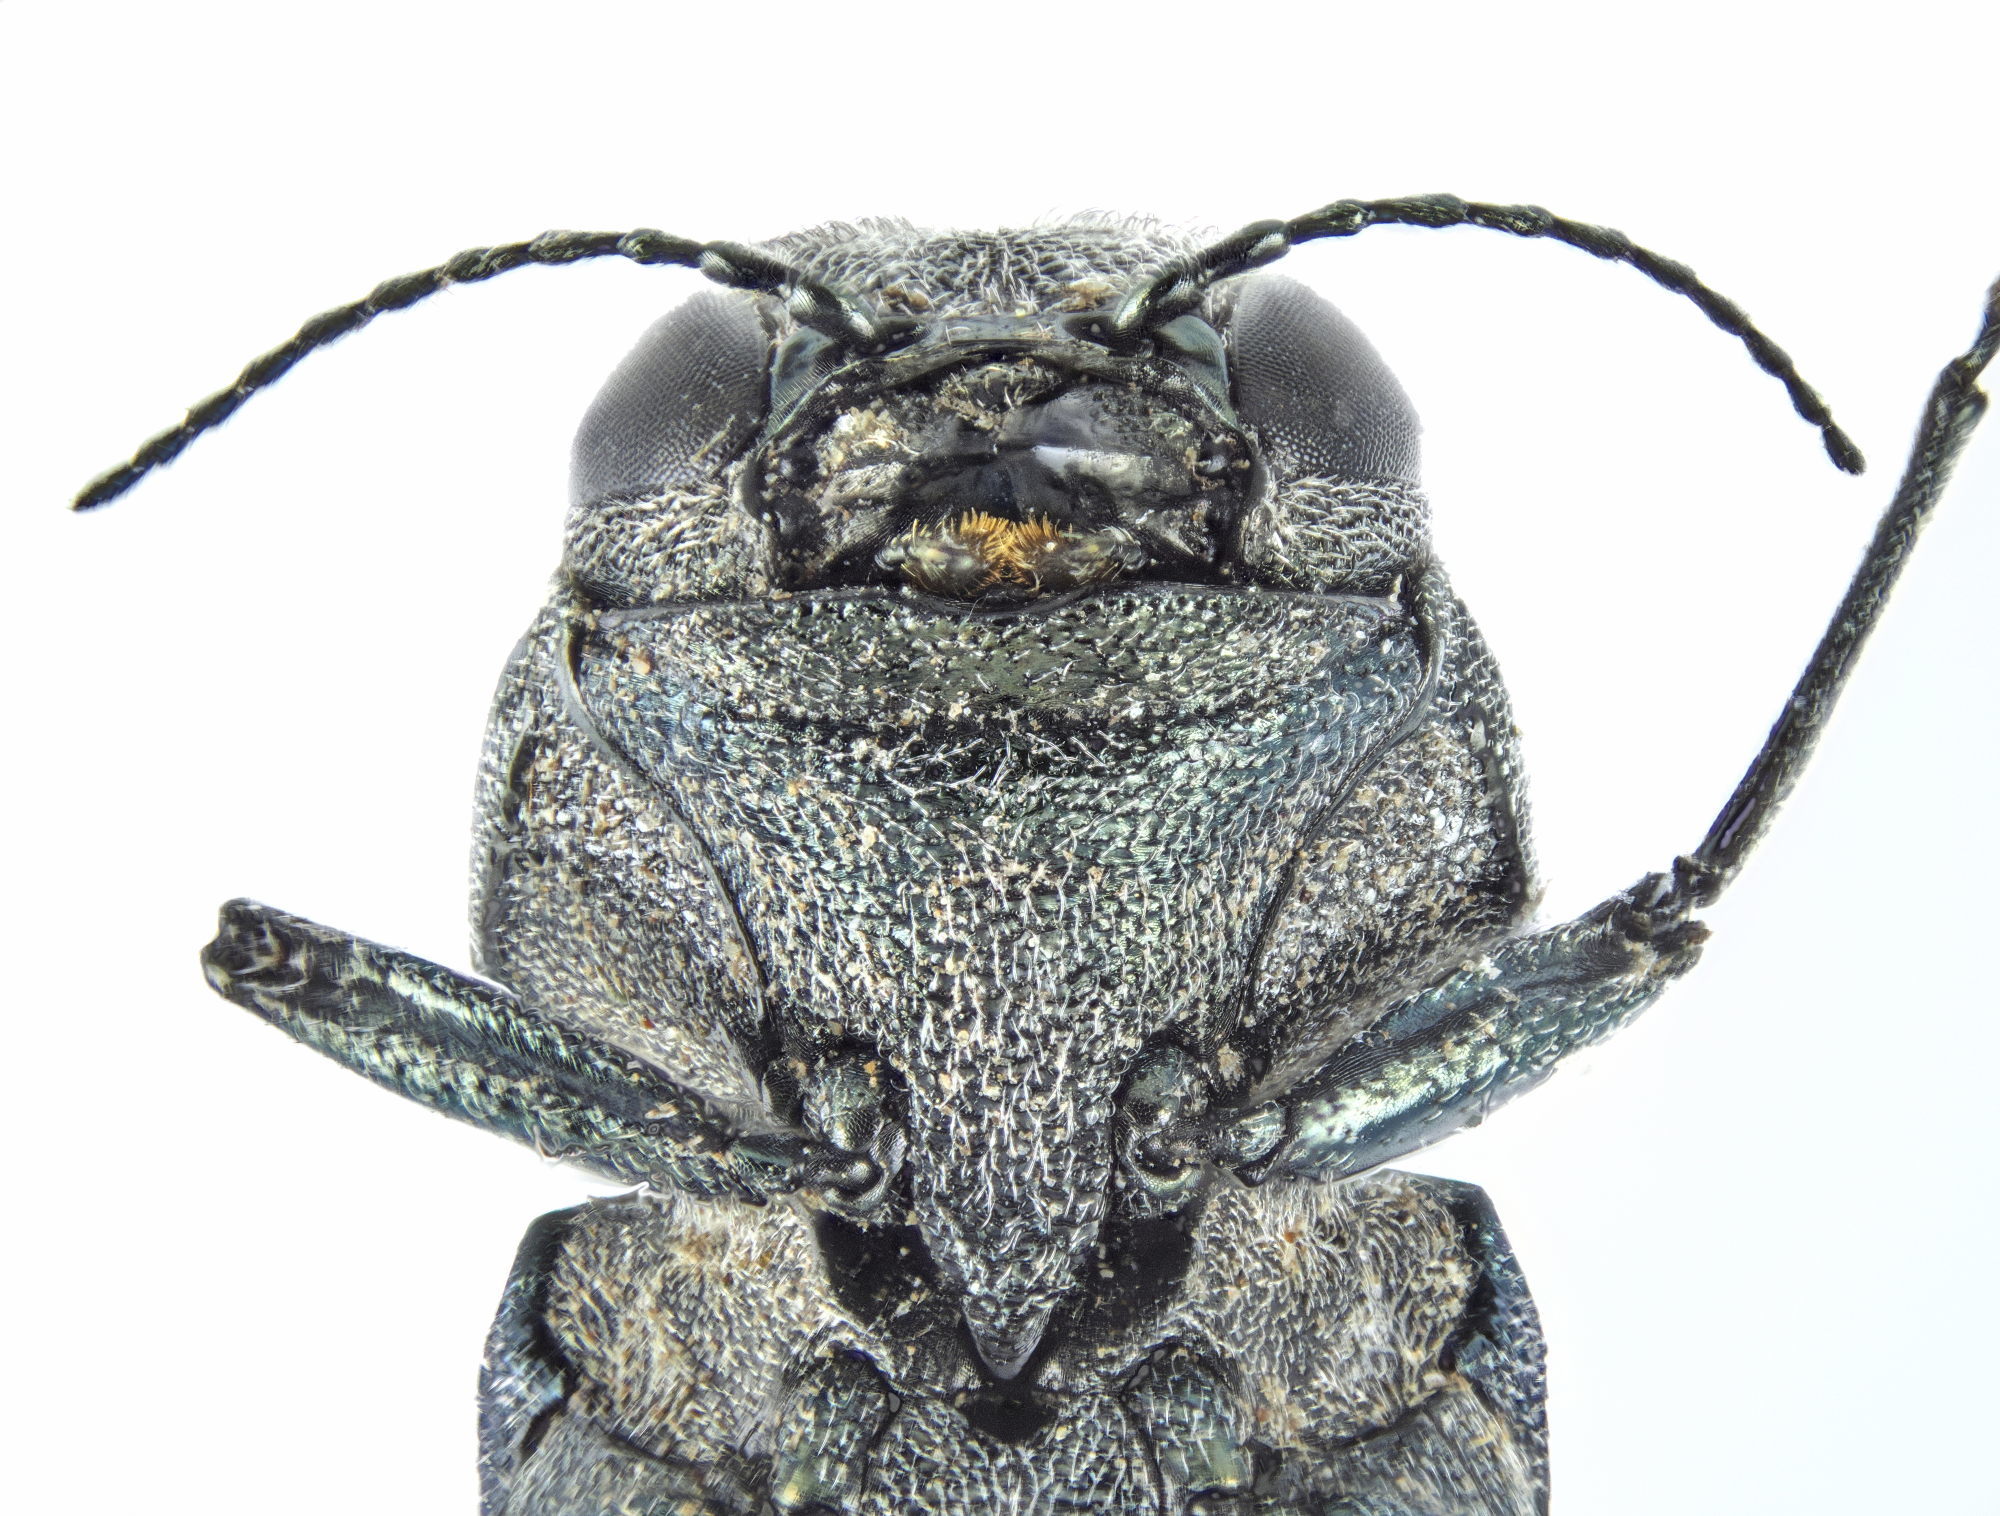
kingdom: Animalia
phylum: Arthropoda
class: Insecta
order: Coleoptera
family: Buprestidae
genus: Agrilus
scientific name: Agrilus ater
